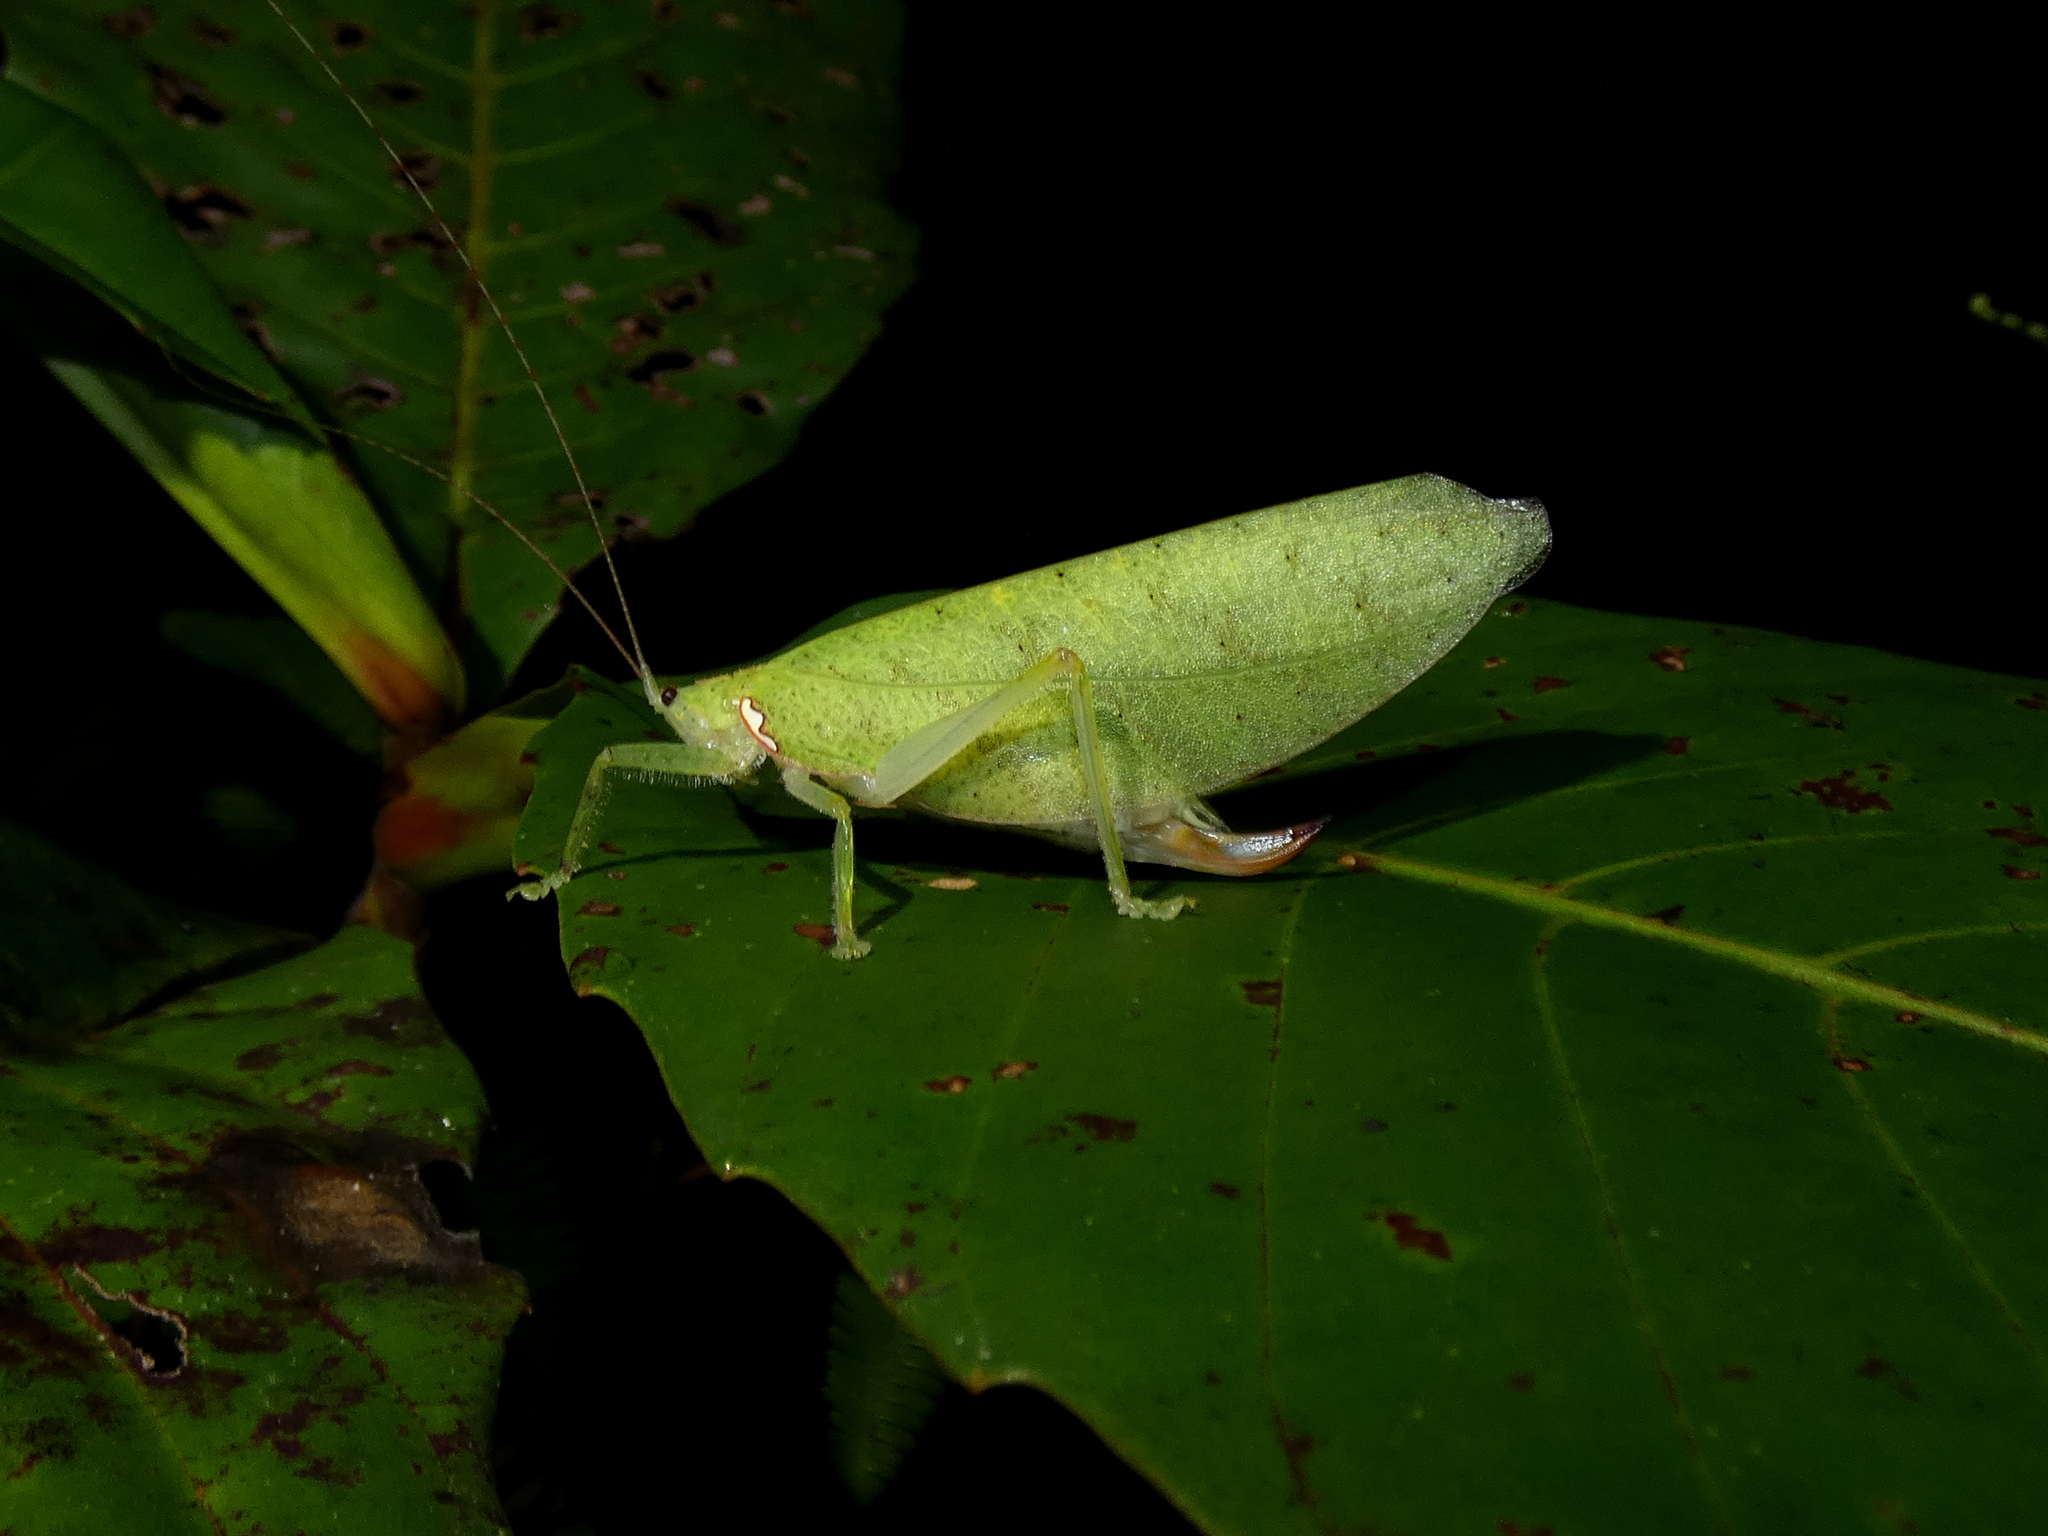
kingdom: Animalia
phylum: Arthropoda
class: Insecta
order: Orthoptera
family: Tettigoniidae
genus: Chondroderella
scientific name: Chondroderella borneensis
